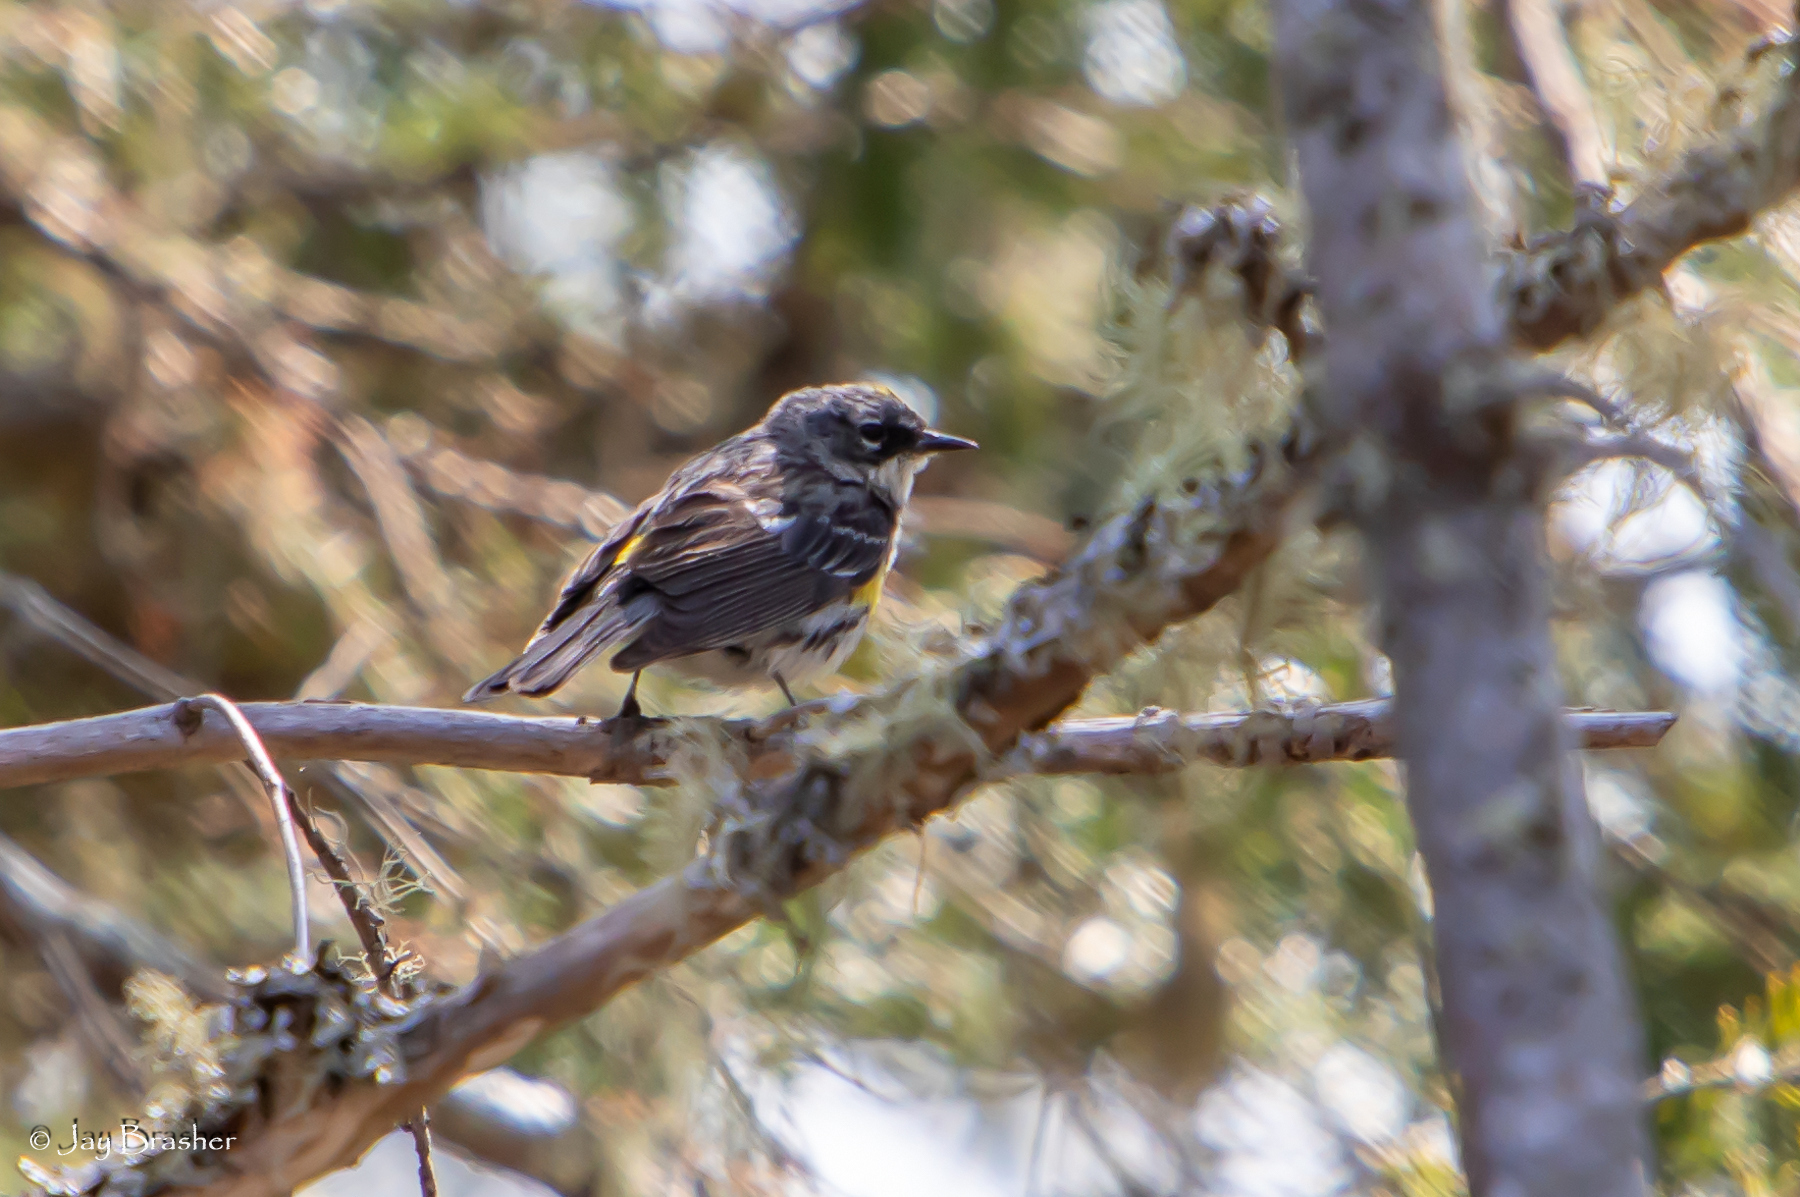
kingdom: Animalia
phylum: Chordata
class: Aves
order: Passeriformes
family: Parulidae
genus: Setophaga
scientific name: Setophaga coronata
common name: Myrtle warbler
